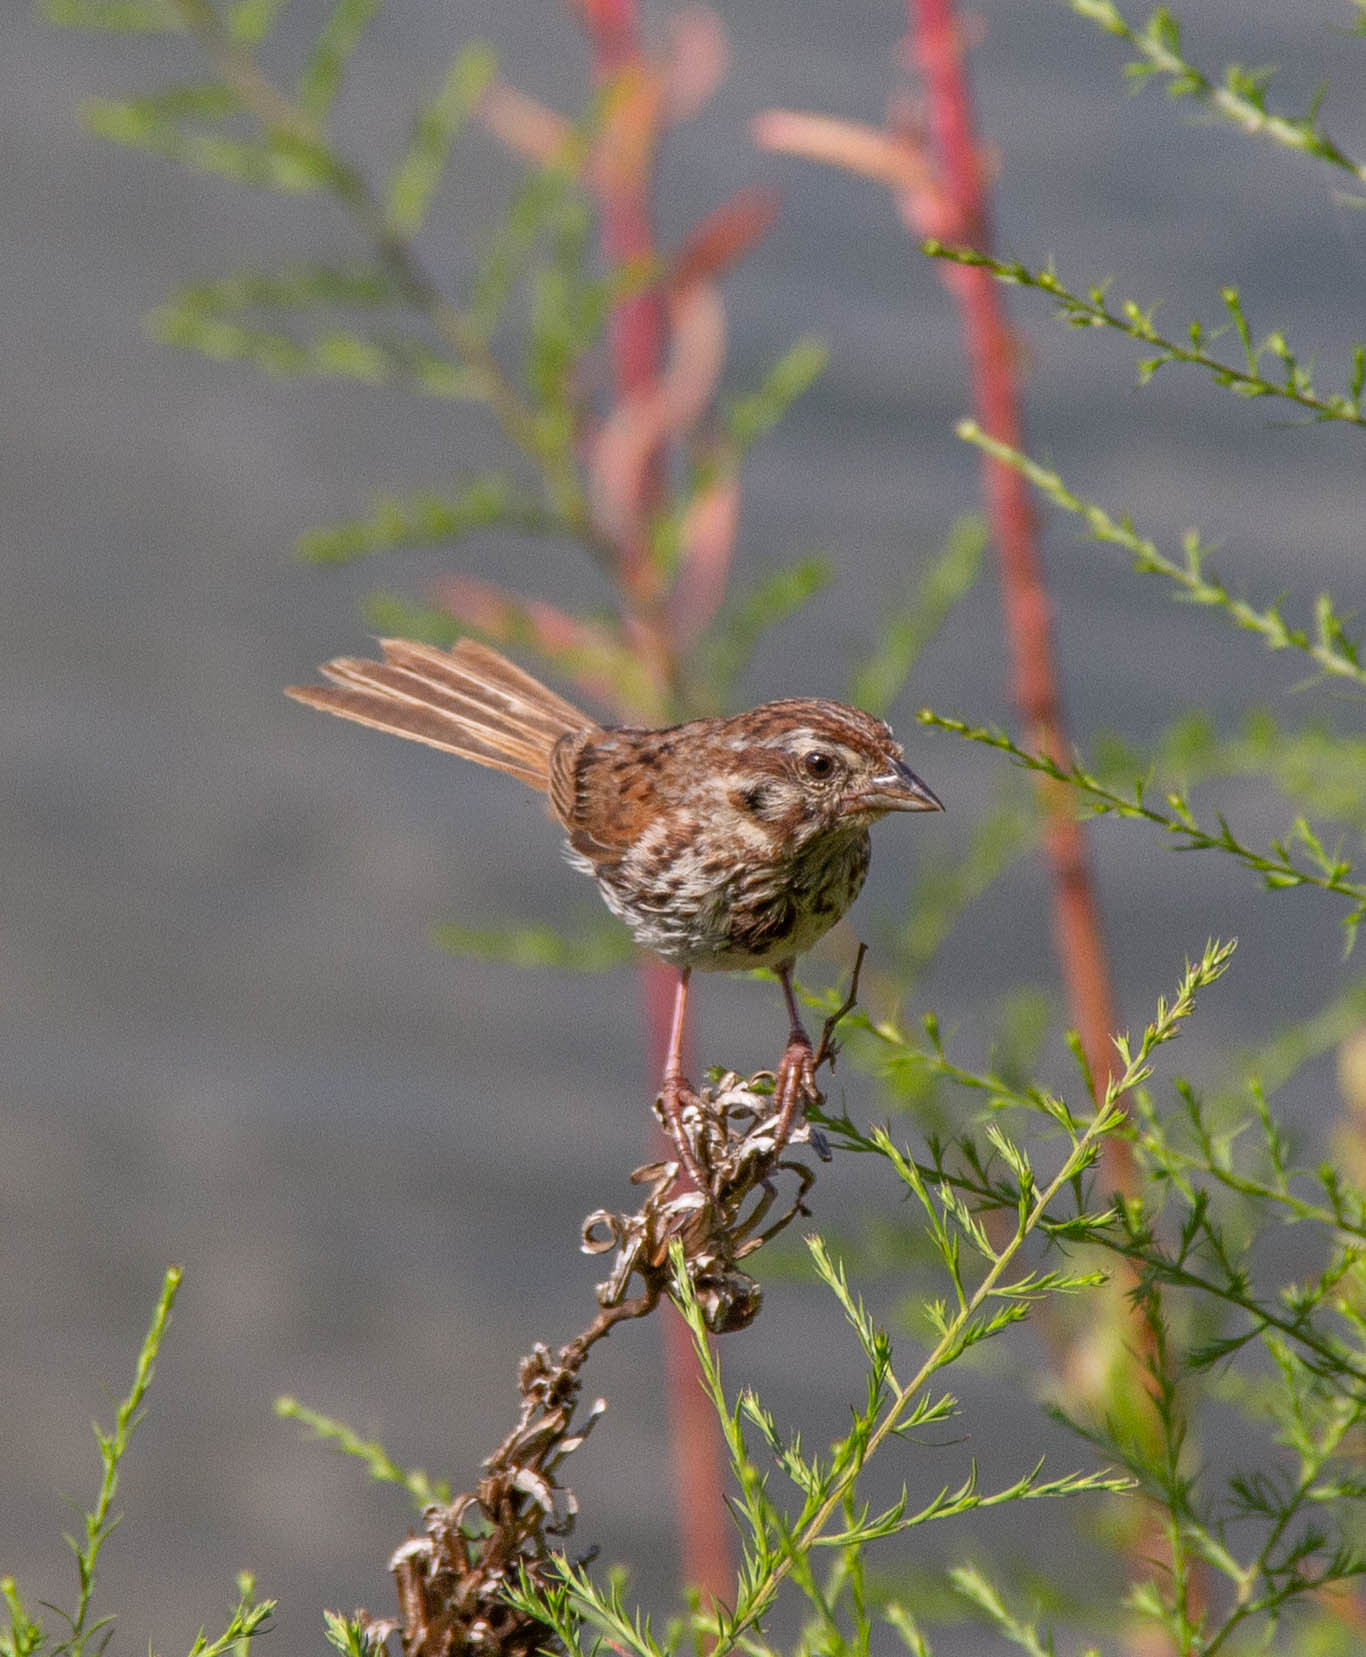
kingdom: Animalia
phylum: Chordata
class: Aves
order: Passeriformes
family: Passerellidae
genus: Melospiza
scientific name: Melospiza melodia
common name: Song sparrow
